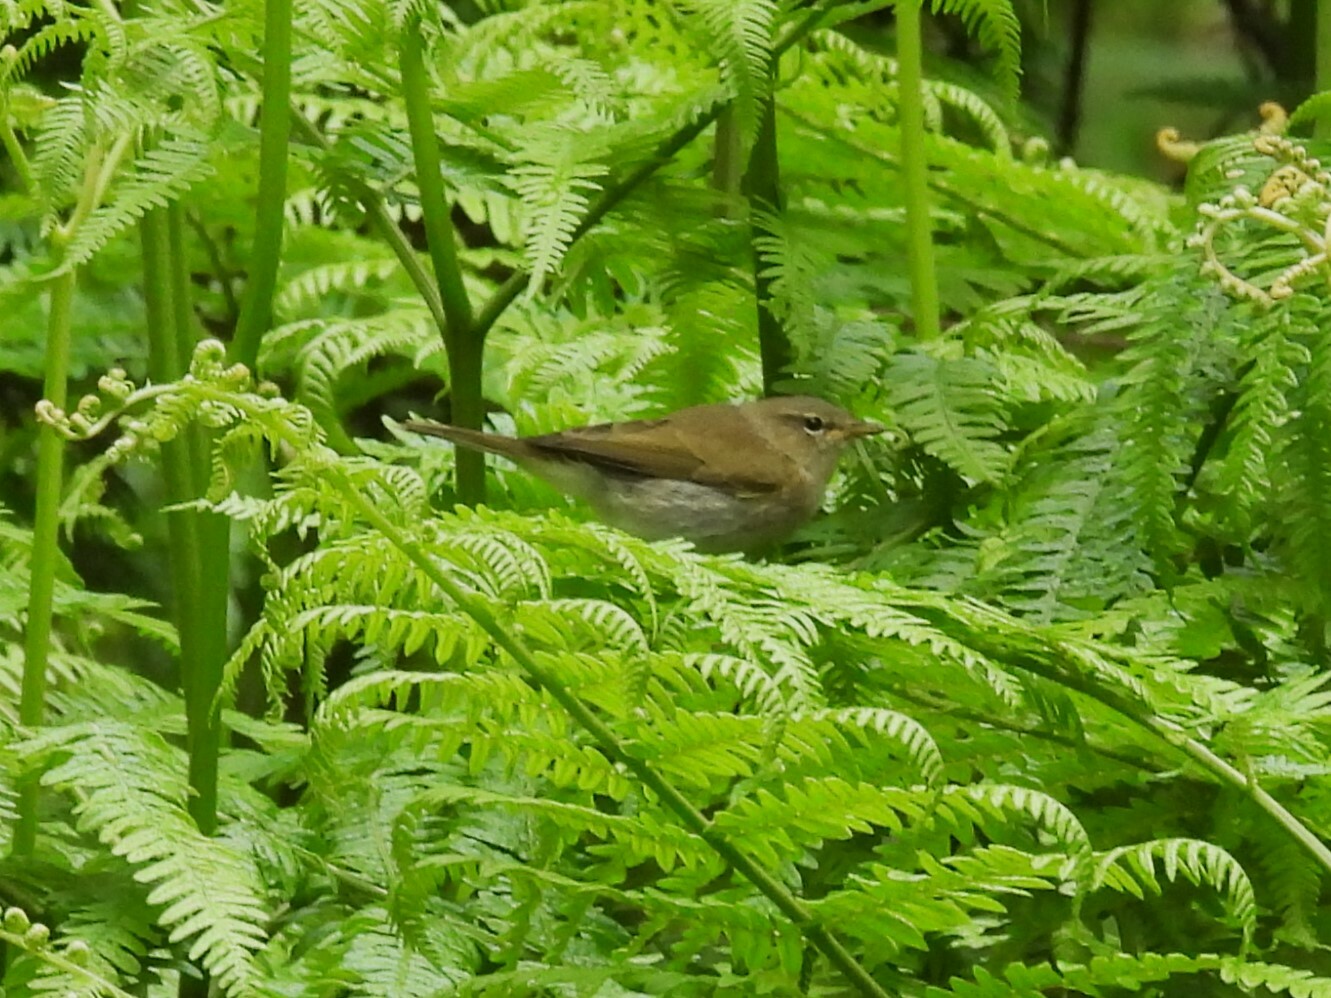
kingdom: Animalia
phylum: Chordata
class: Aves
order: Passeriformes
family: Phylloscopidae
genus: Phylloscopus
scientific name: Phylloscopus collybita
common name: Common chiffchaff
